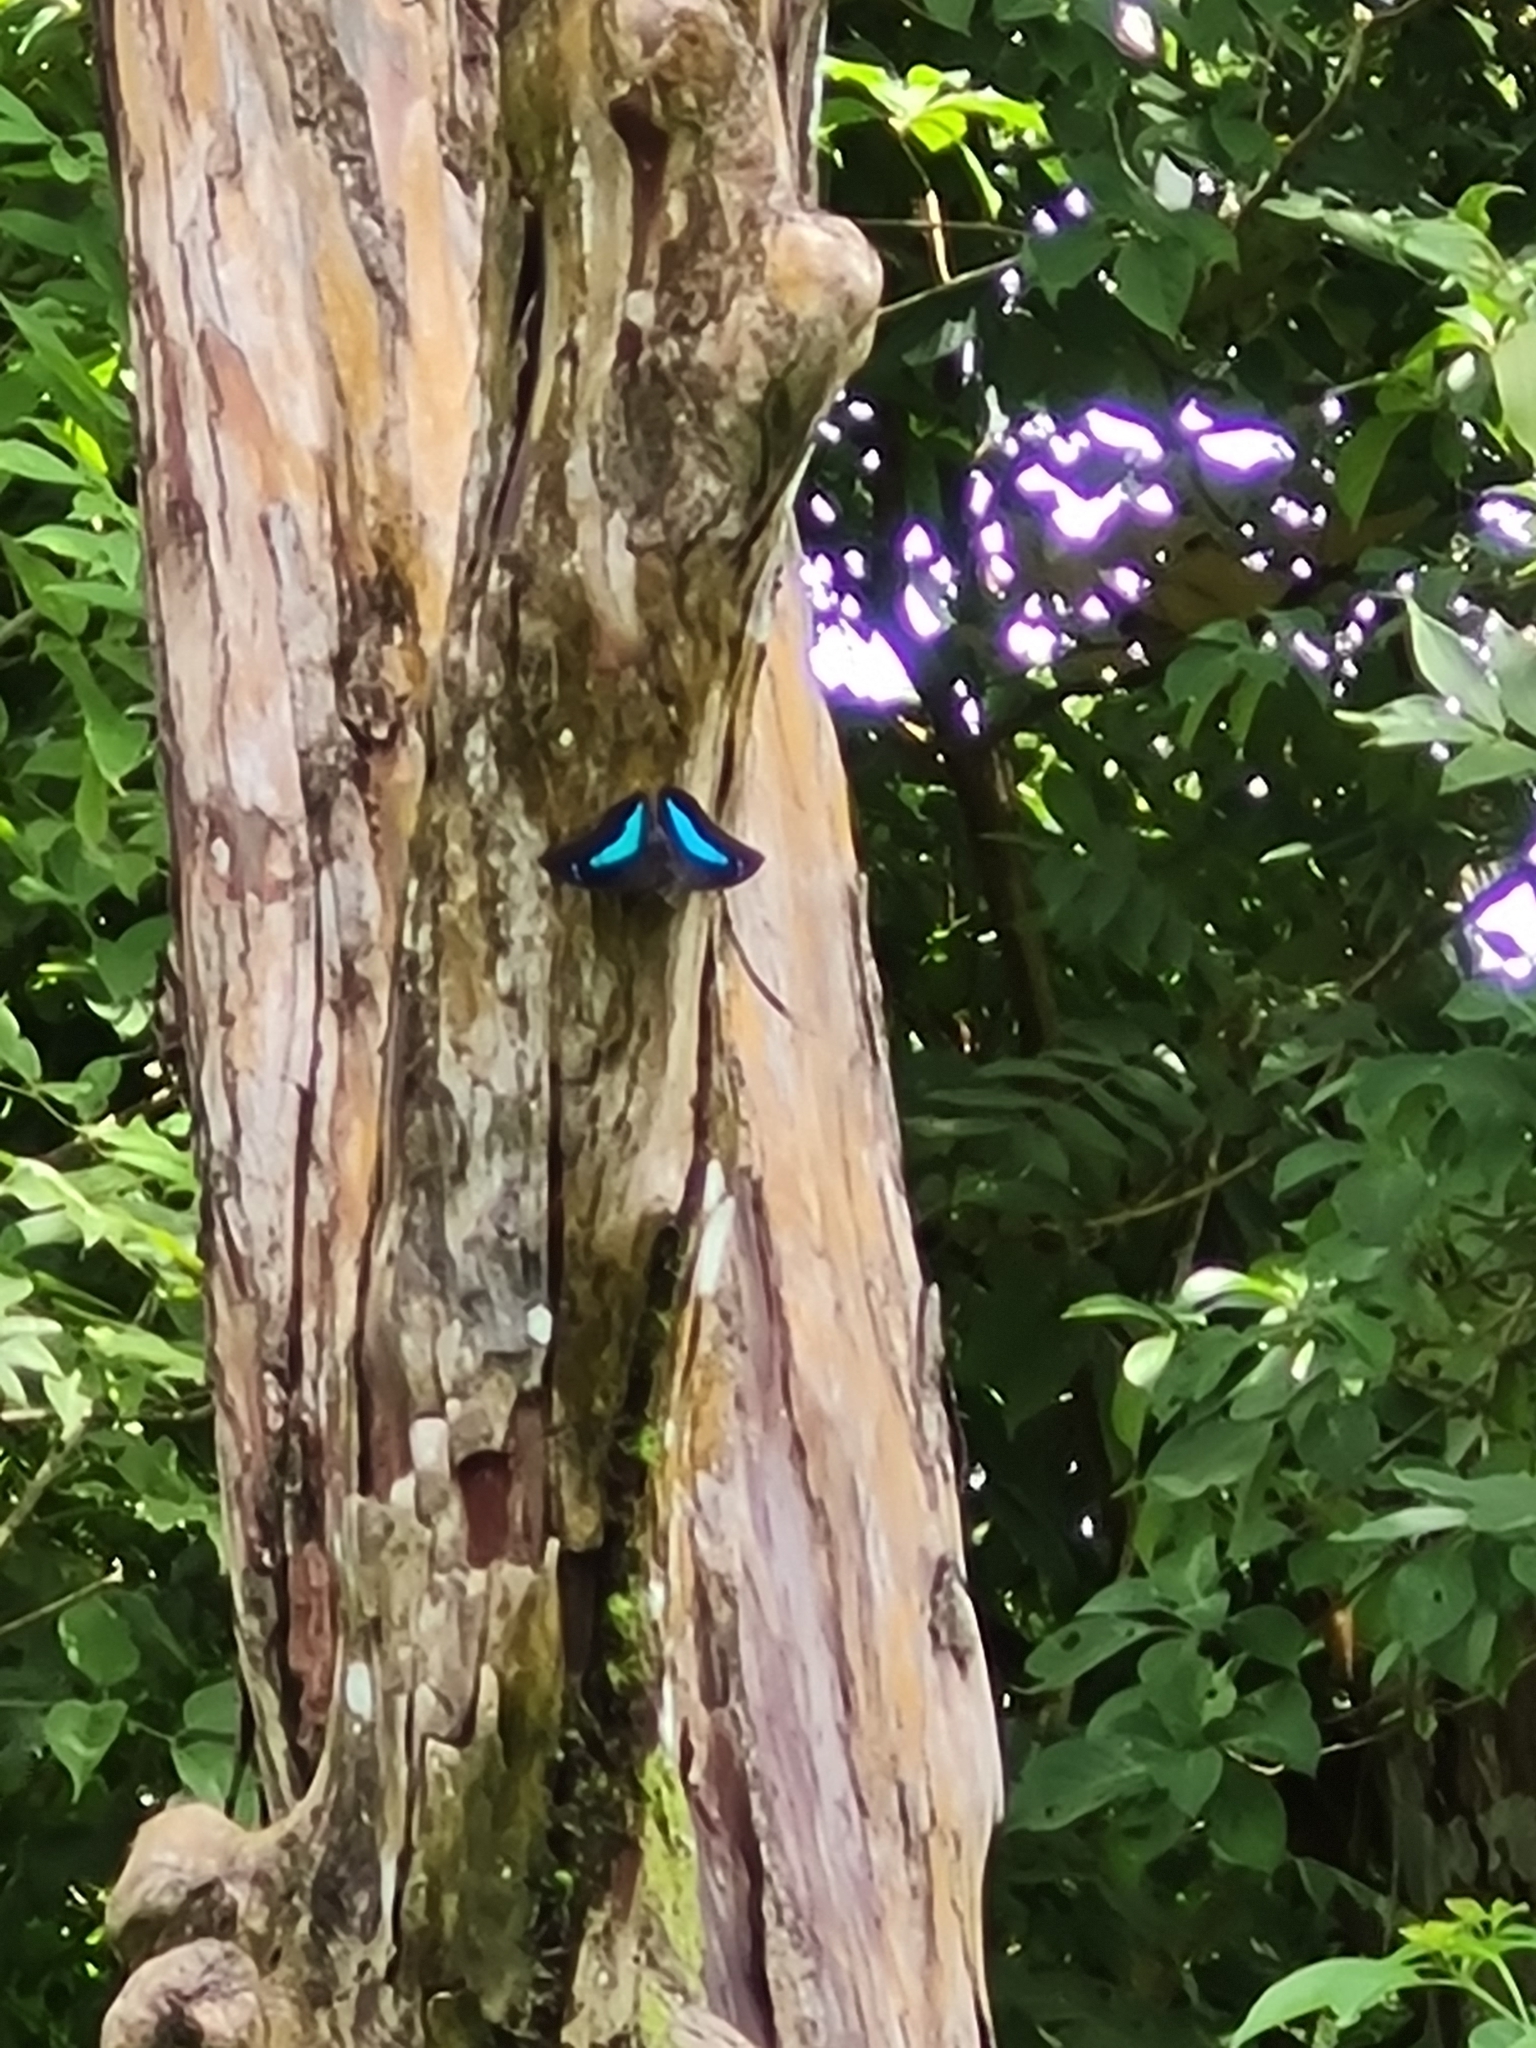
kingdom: Animalia
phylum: Arthropoda
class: Insecta
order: Lepidoptera
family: Nymphalidae
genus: Prepona
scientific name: Prepona demophoon
